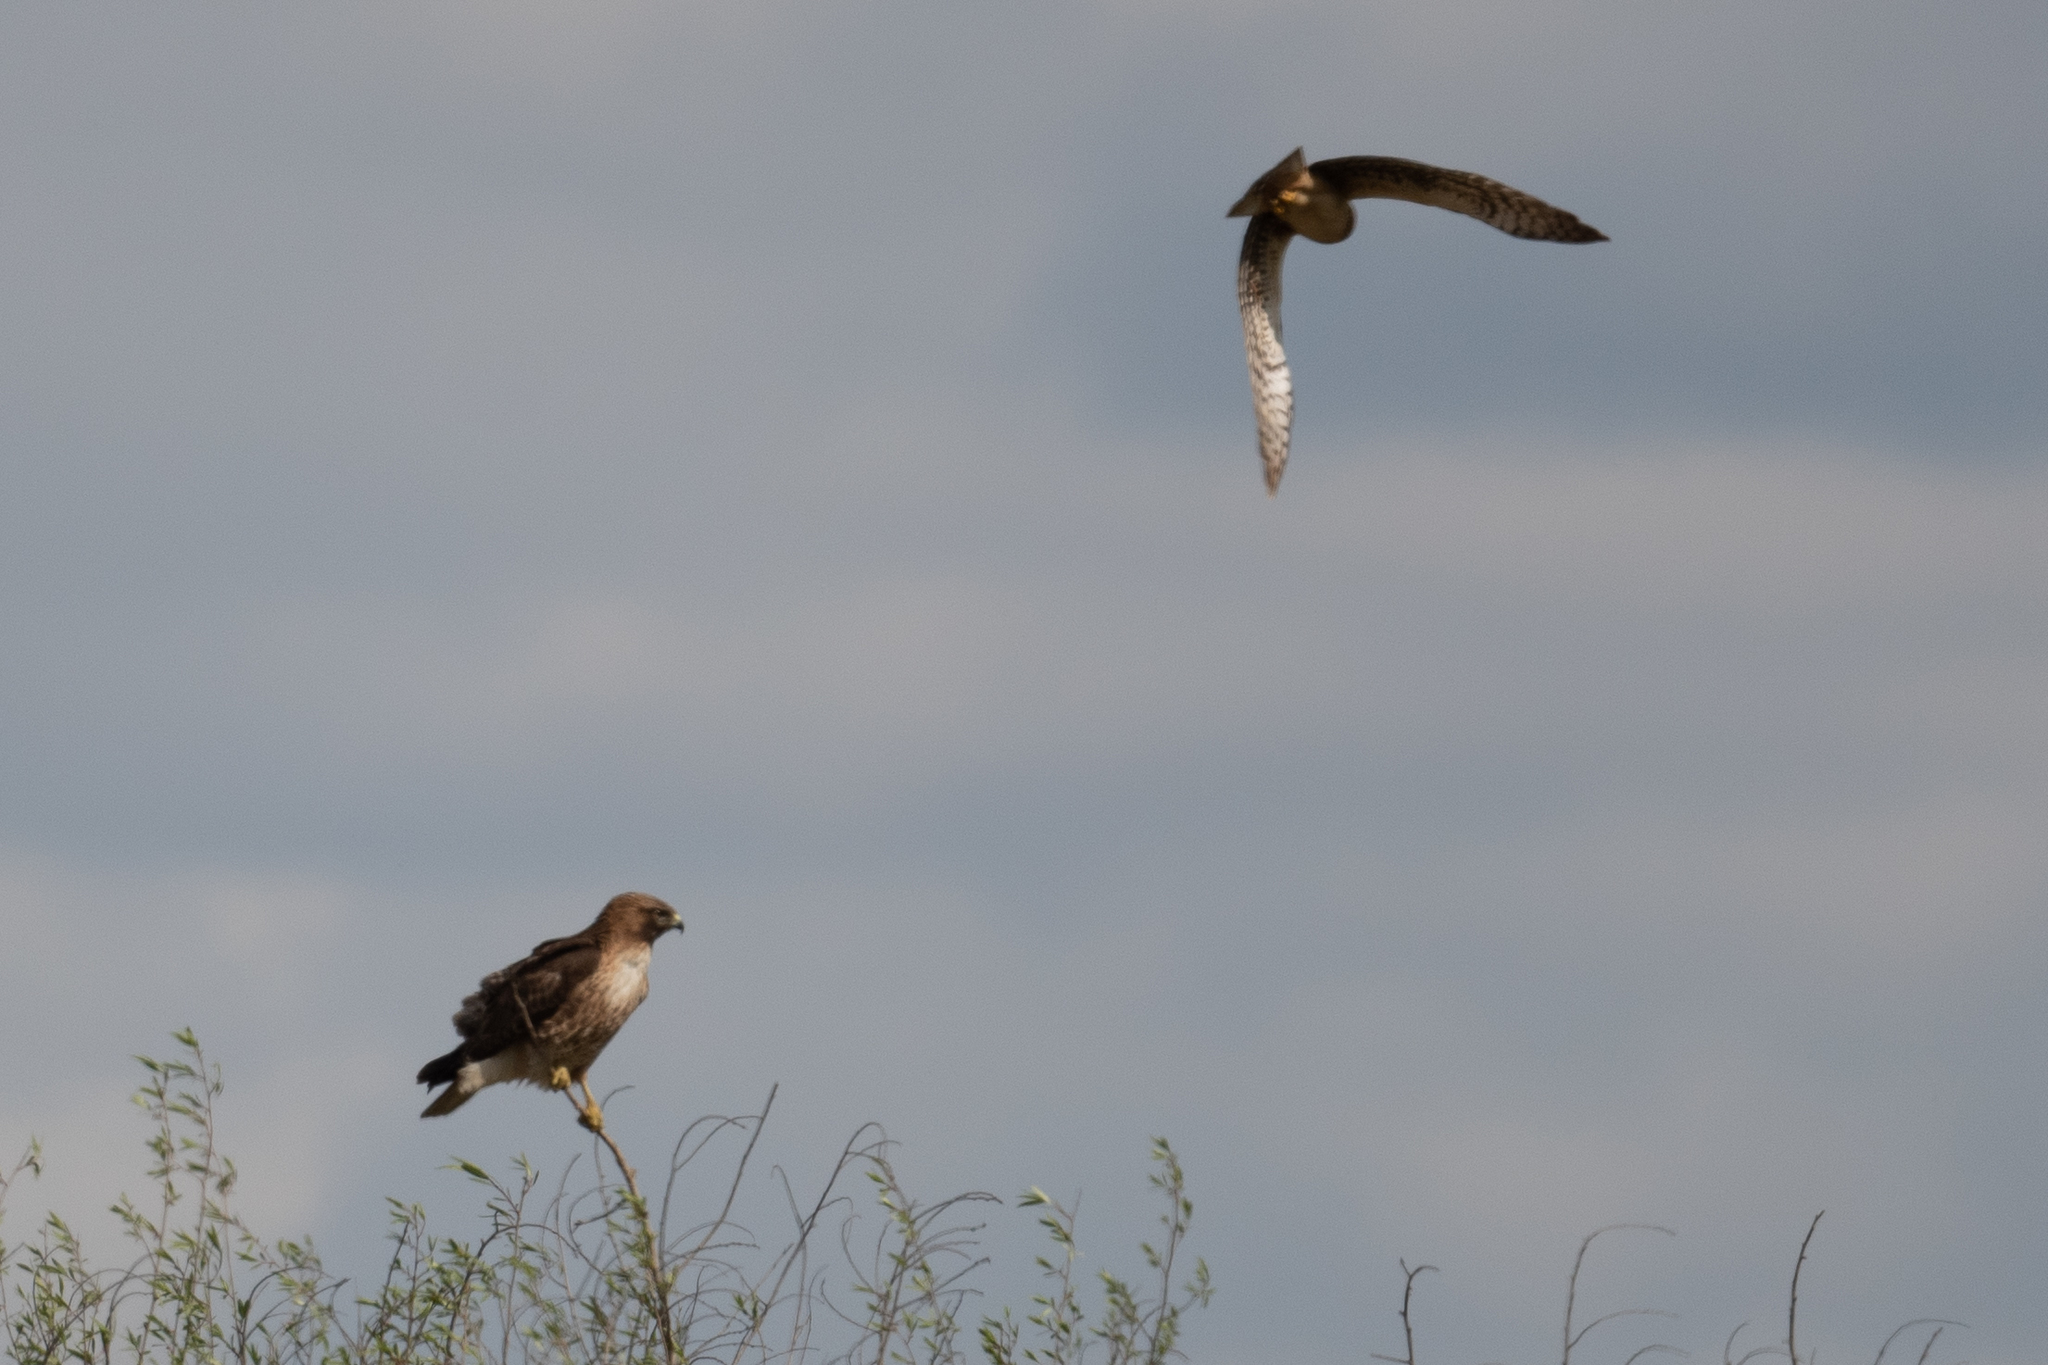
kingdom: Animalia
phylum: Chordata
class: Aves
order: Accipitriformes
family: Accipitridae
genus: Buteo
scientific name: Buteo jamaicensis
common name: Red-tailed hawk
